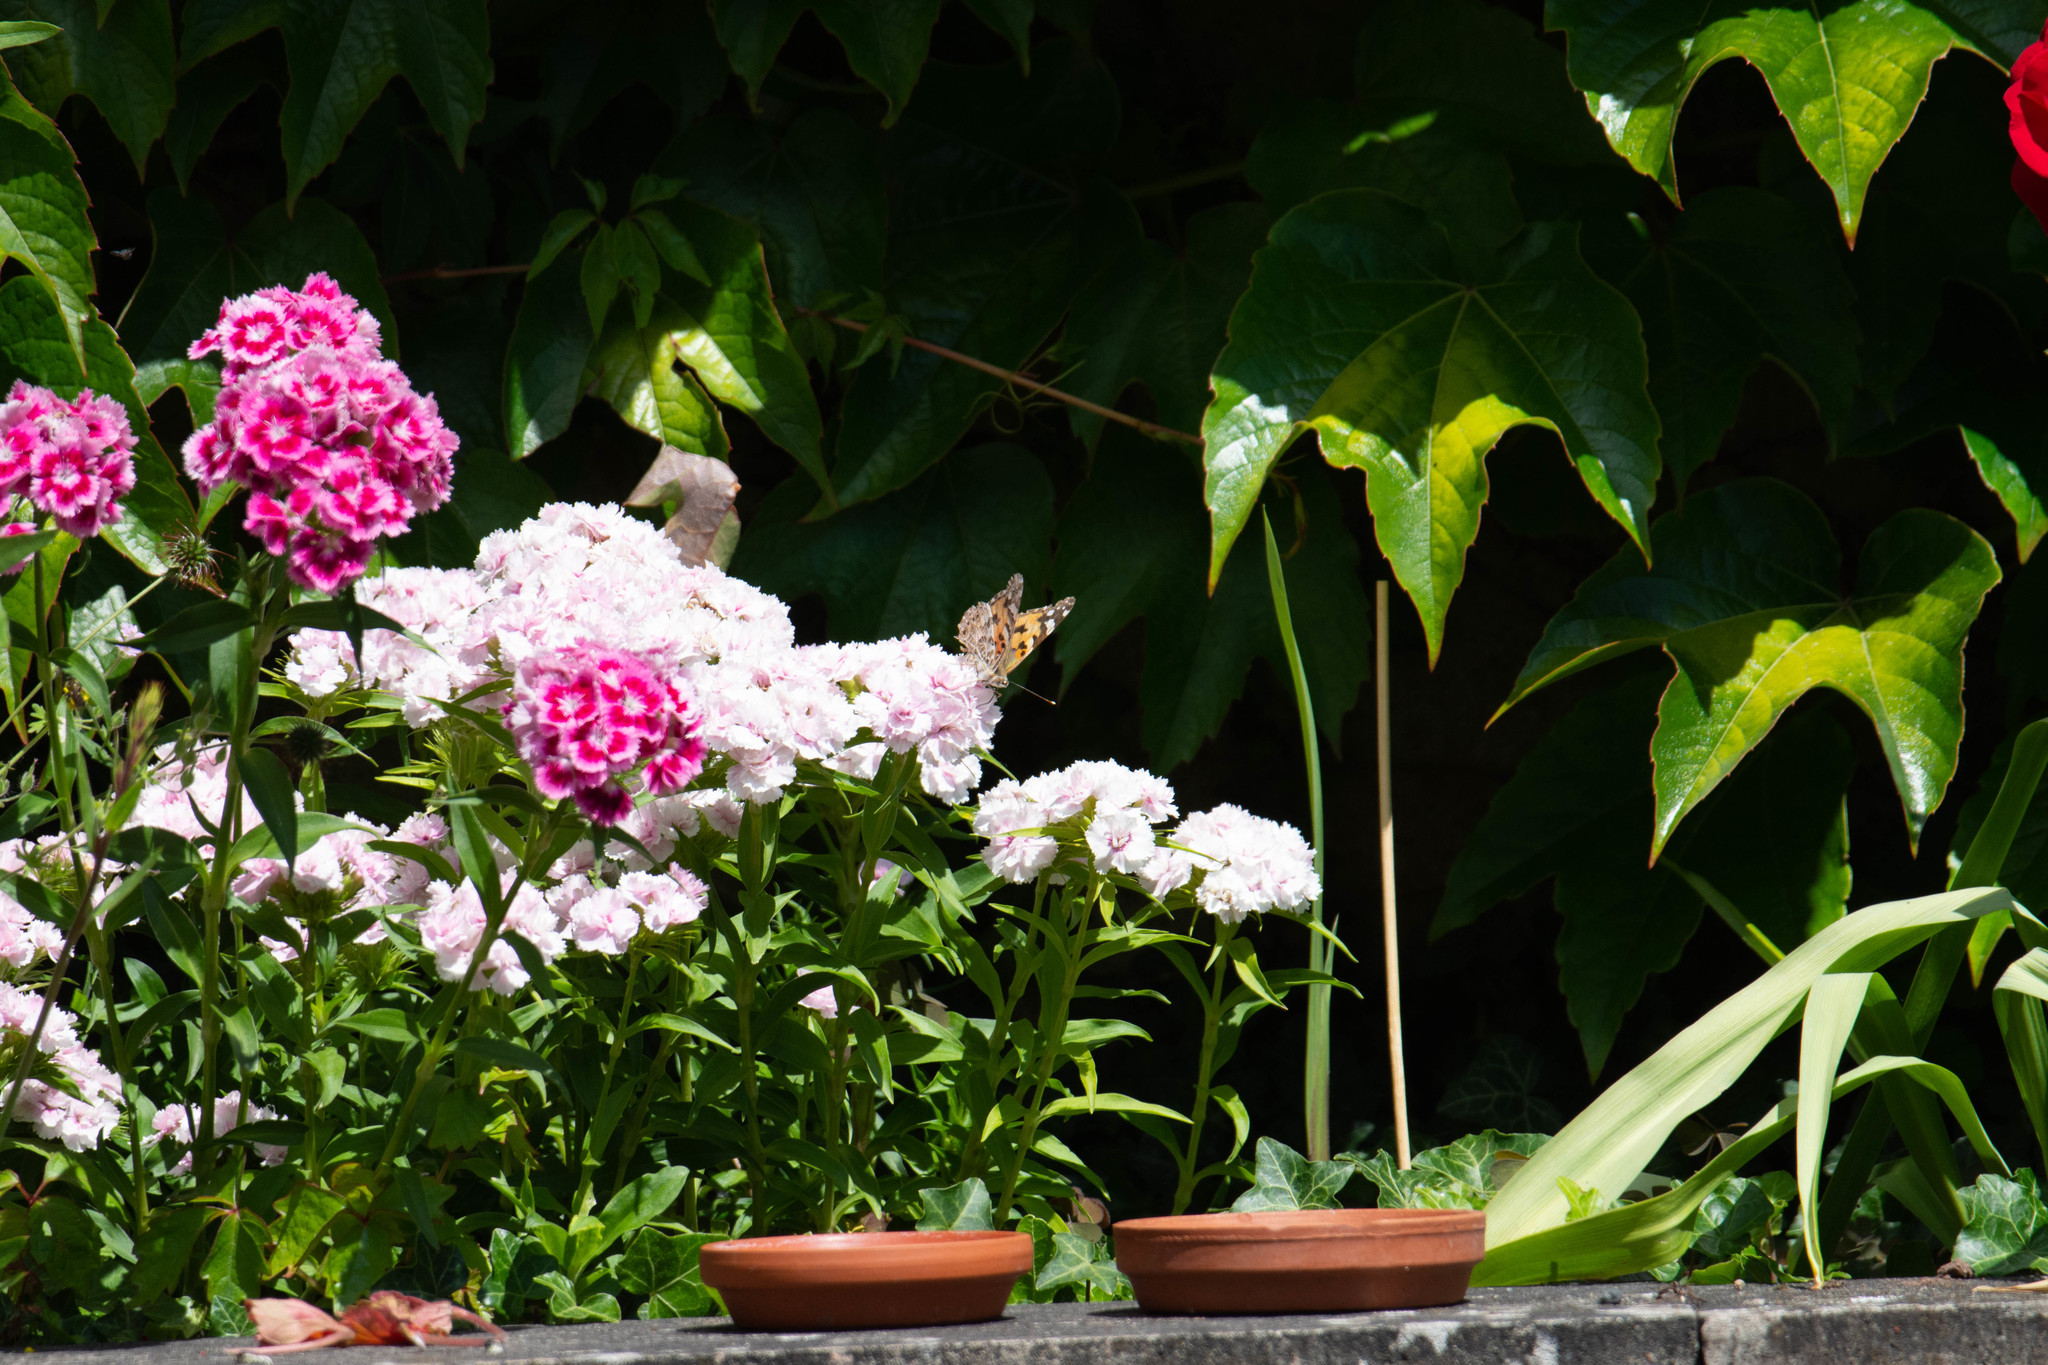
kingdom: Animalia
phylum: Arthropoda
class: Insecta
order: Lepidoptera
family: Nymphalidae
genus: Vanessa
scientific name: Vanessa cardui
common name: Painted lady
